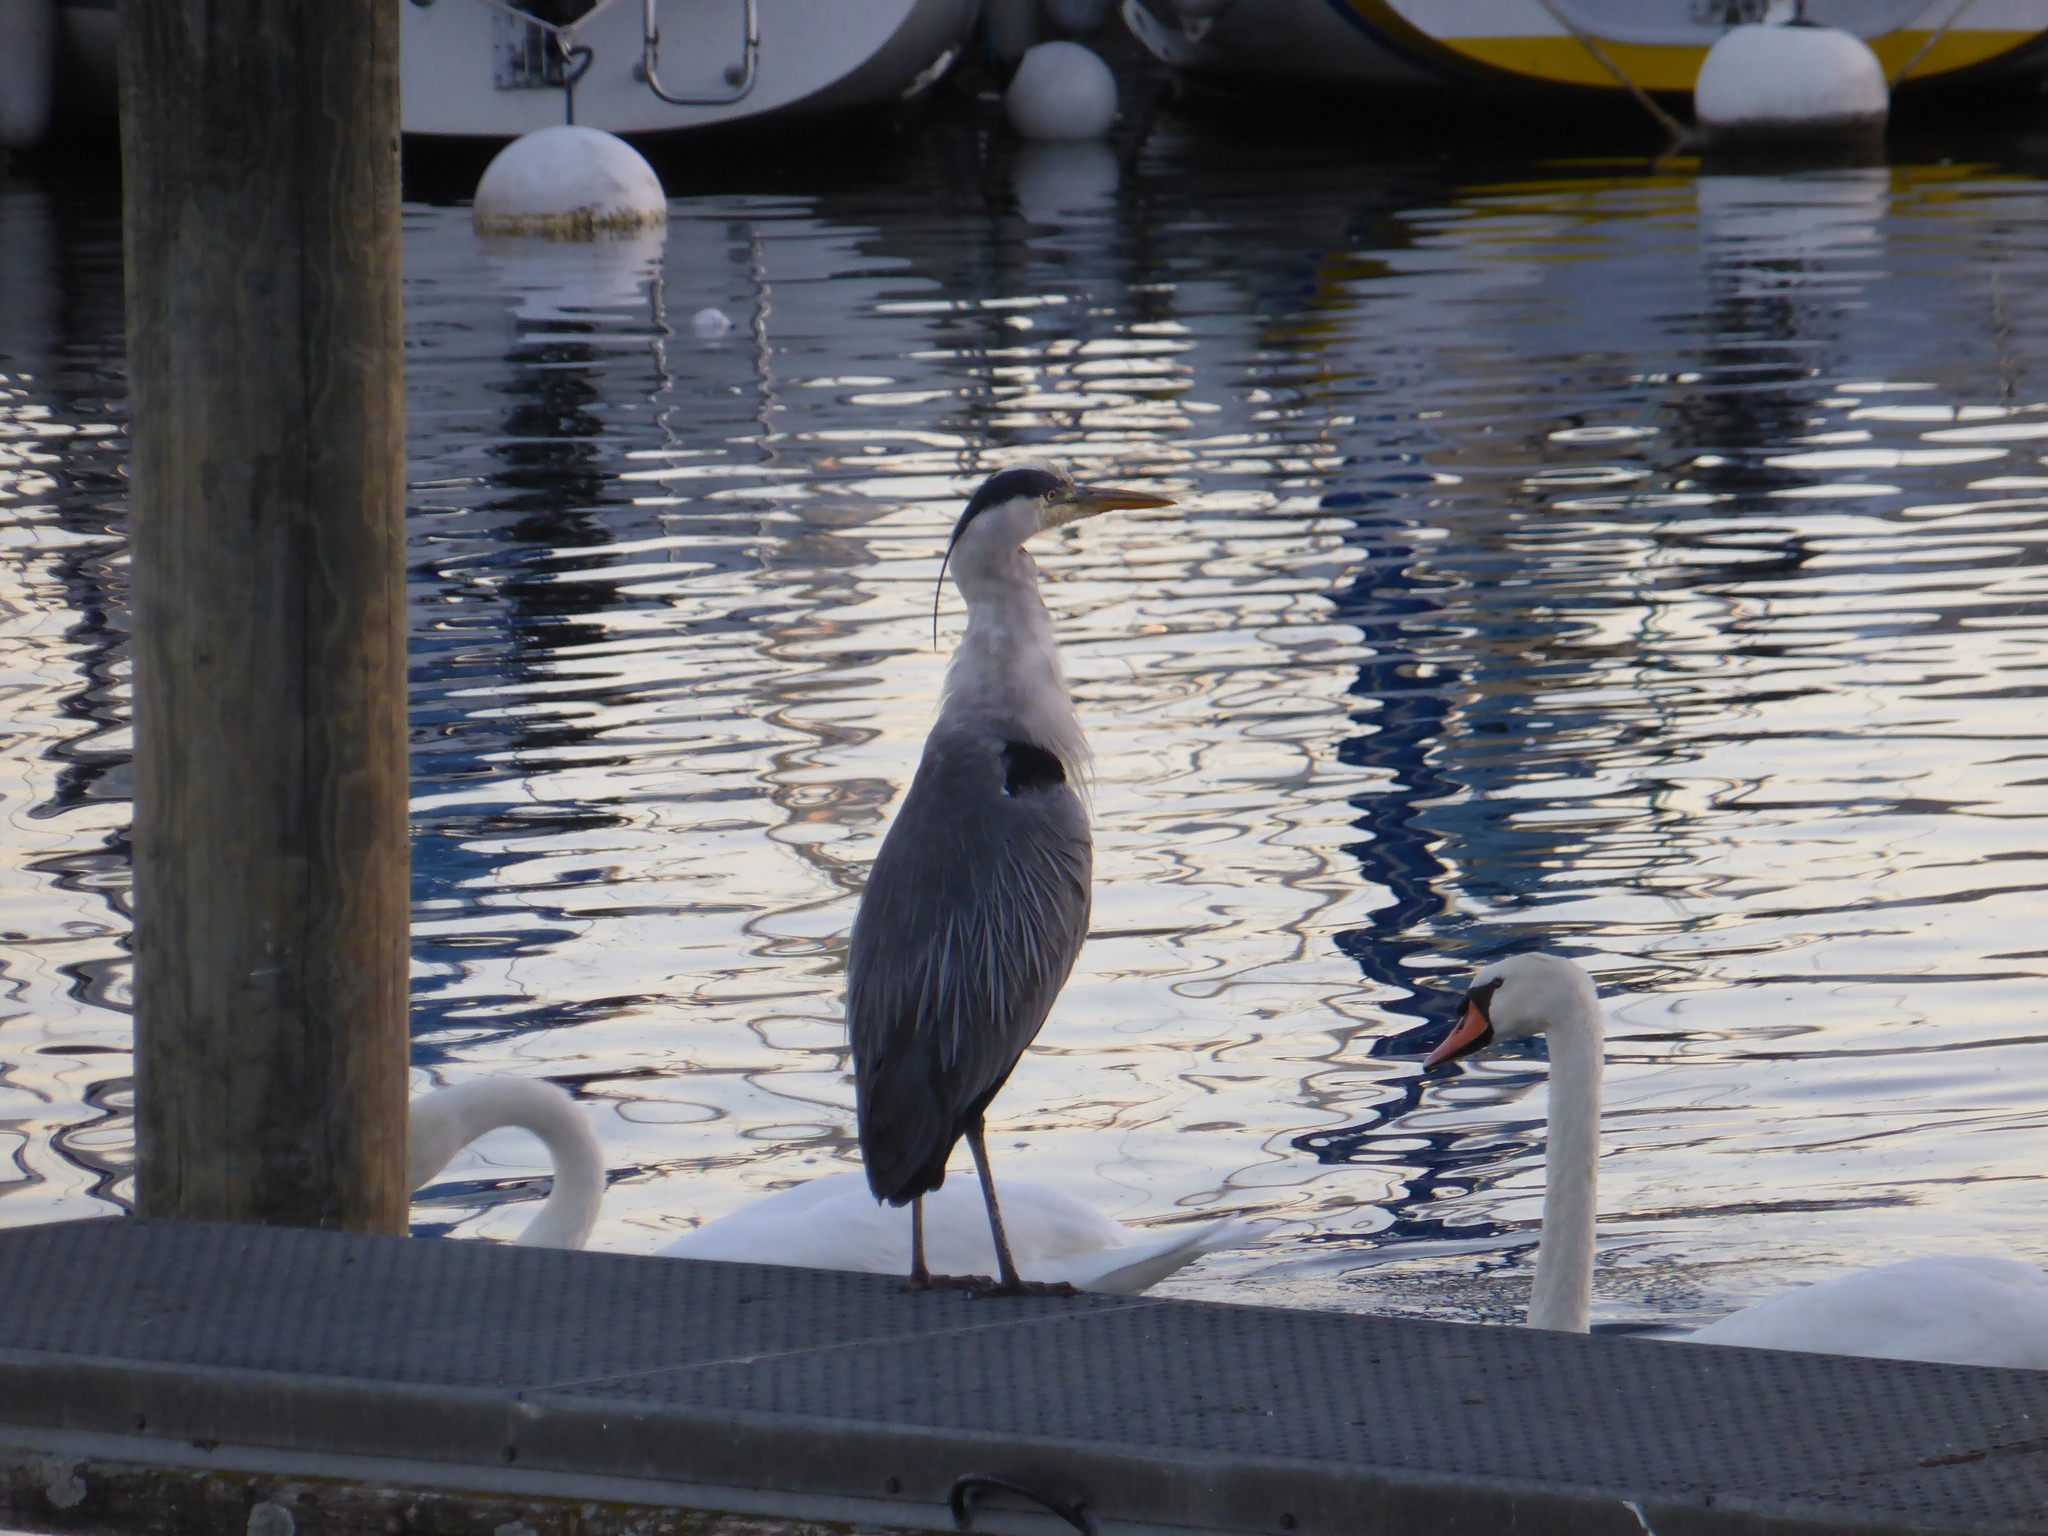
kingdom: Animalia
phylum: Chordata
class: Aves
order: Pelecaniformes
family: Ardeidae
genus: Ardea
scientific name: Ardea cinerea
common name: Grey heron
